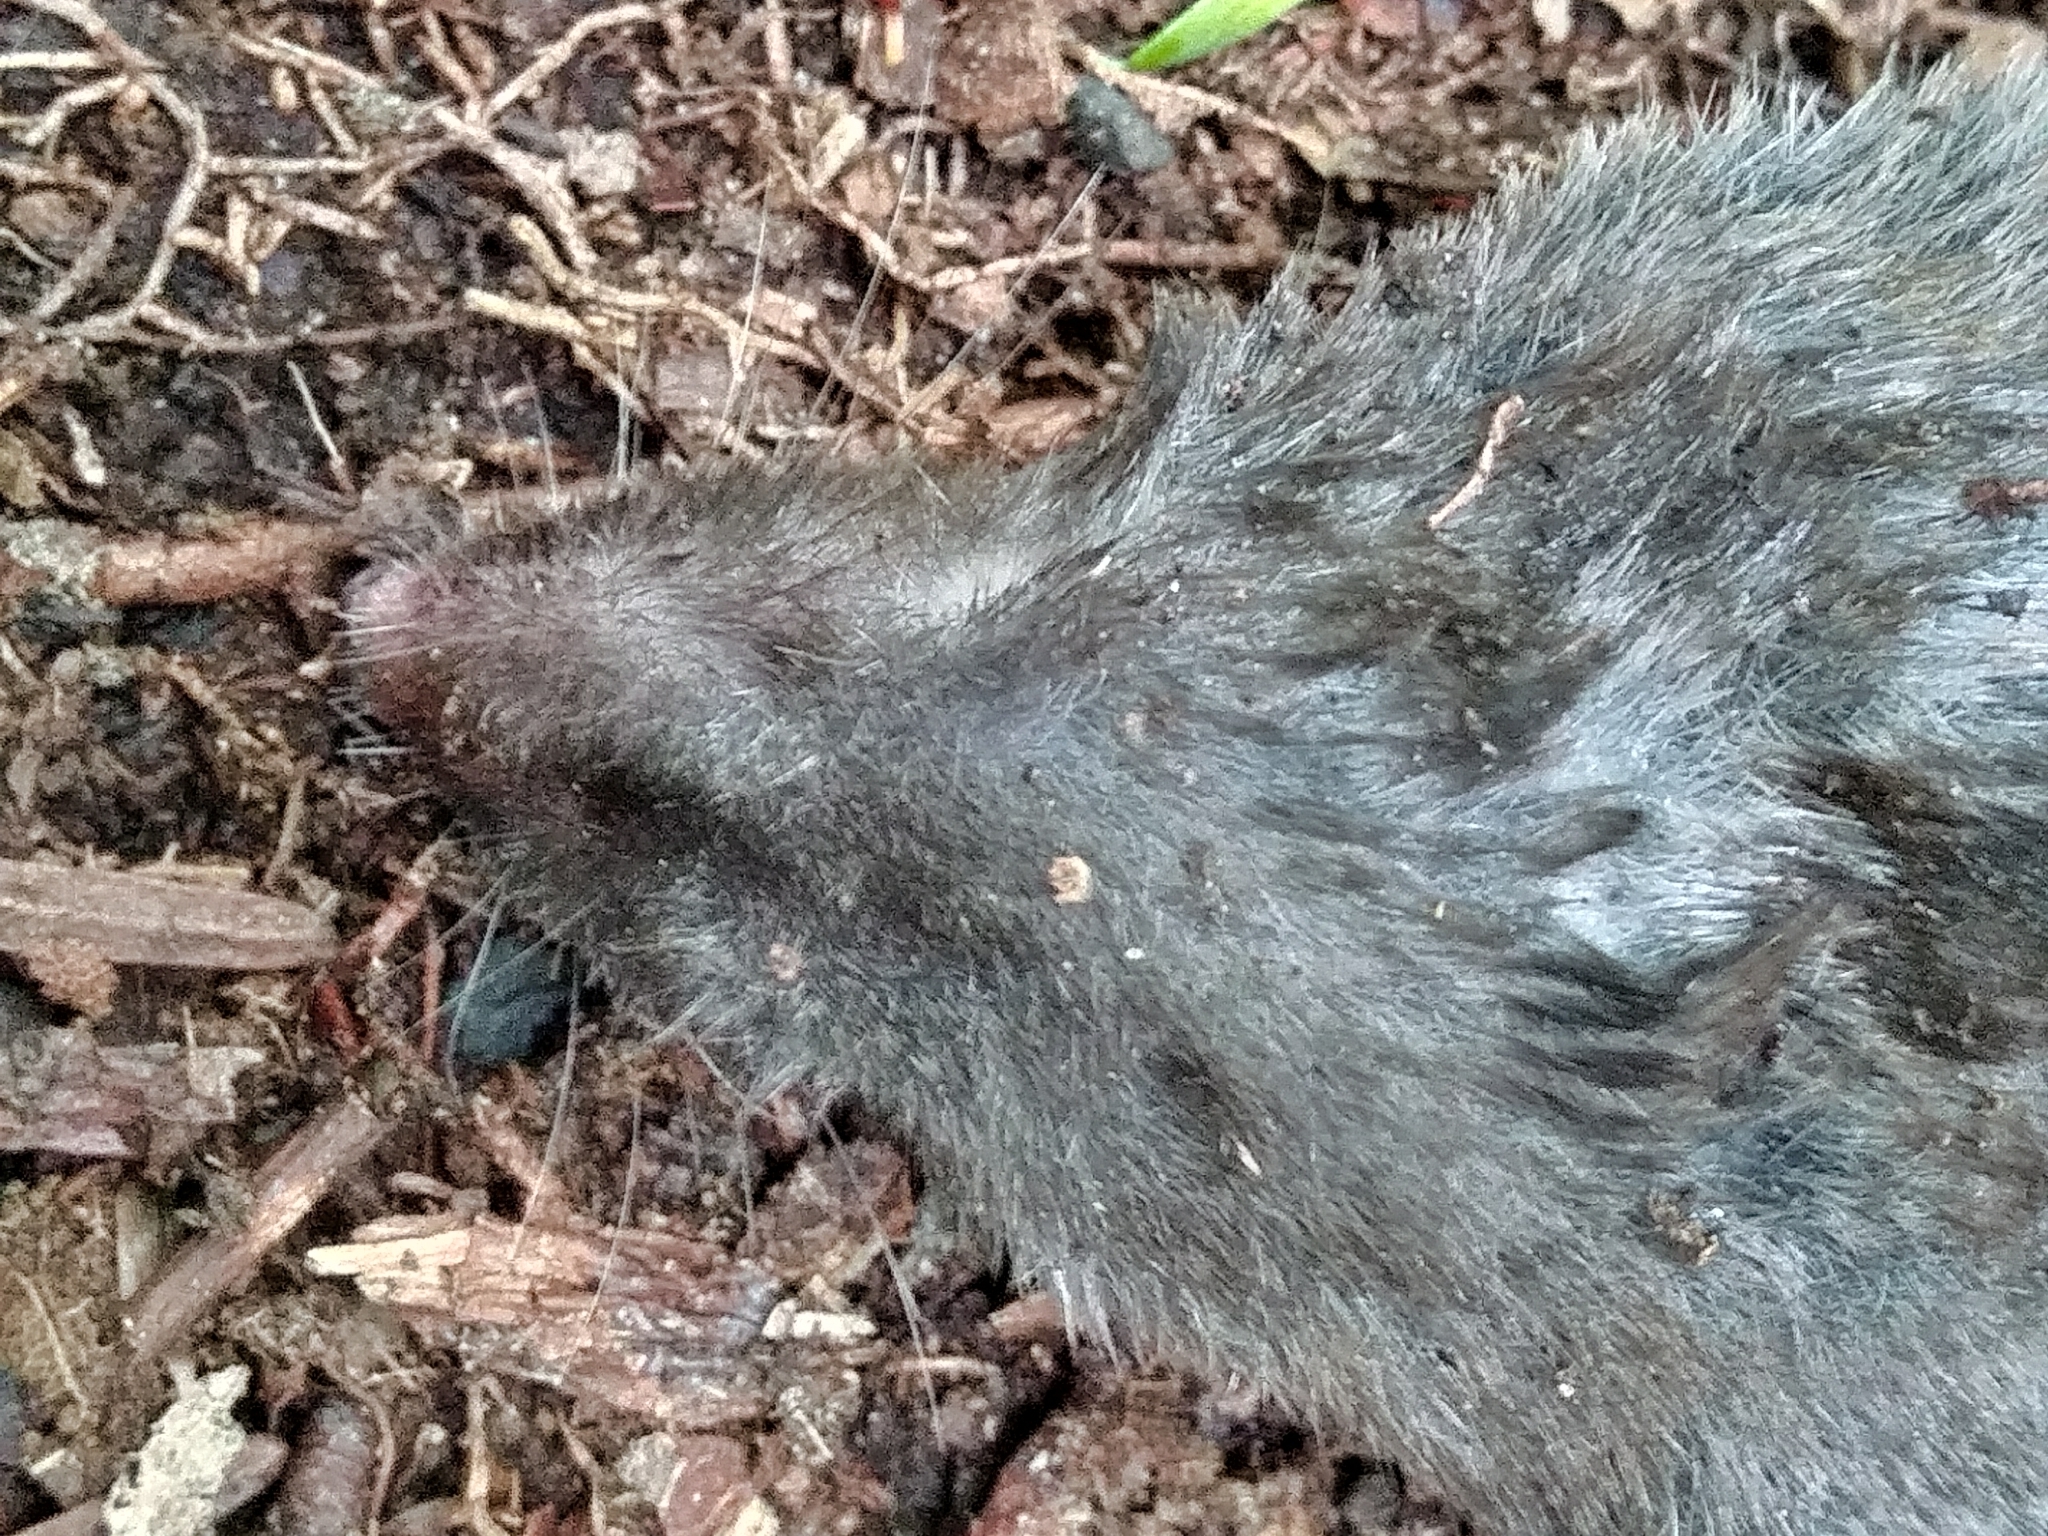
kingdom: Animalia
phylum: Chordata
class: Mammalia
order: Soricomorpha
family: Soricidae
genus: Blarina
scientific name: Blarina brevicauda
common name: Northern short-tailed shrew
